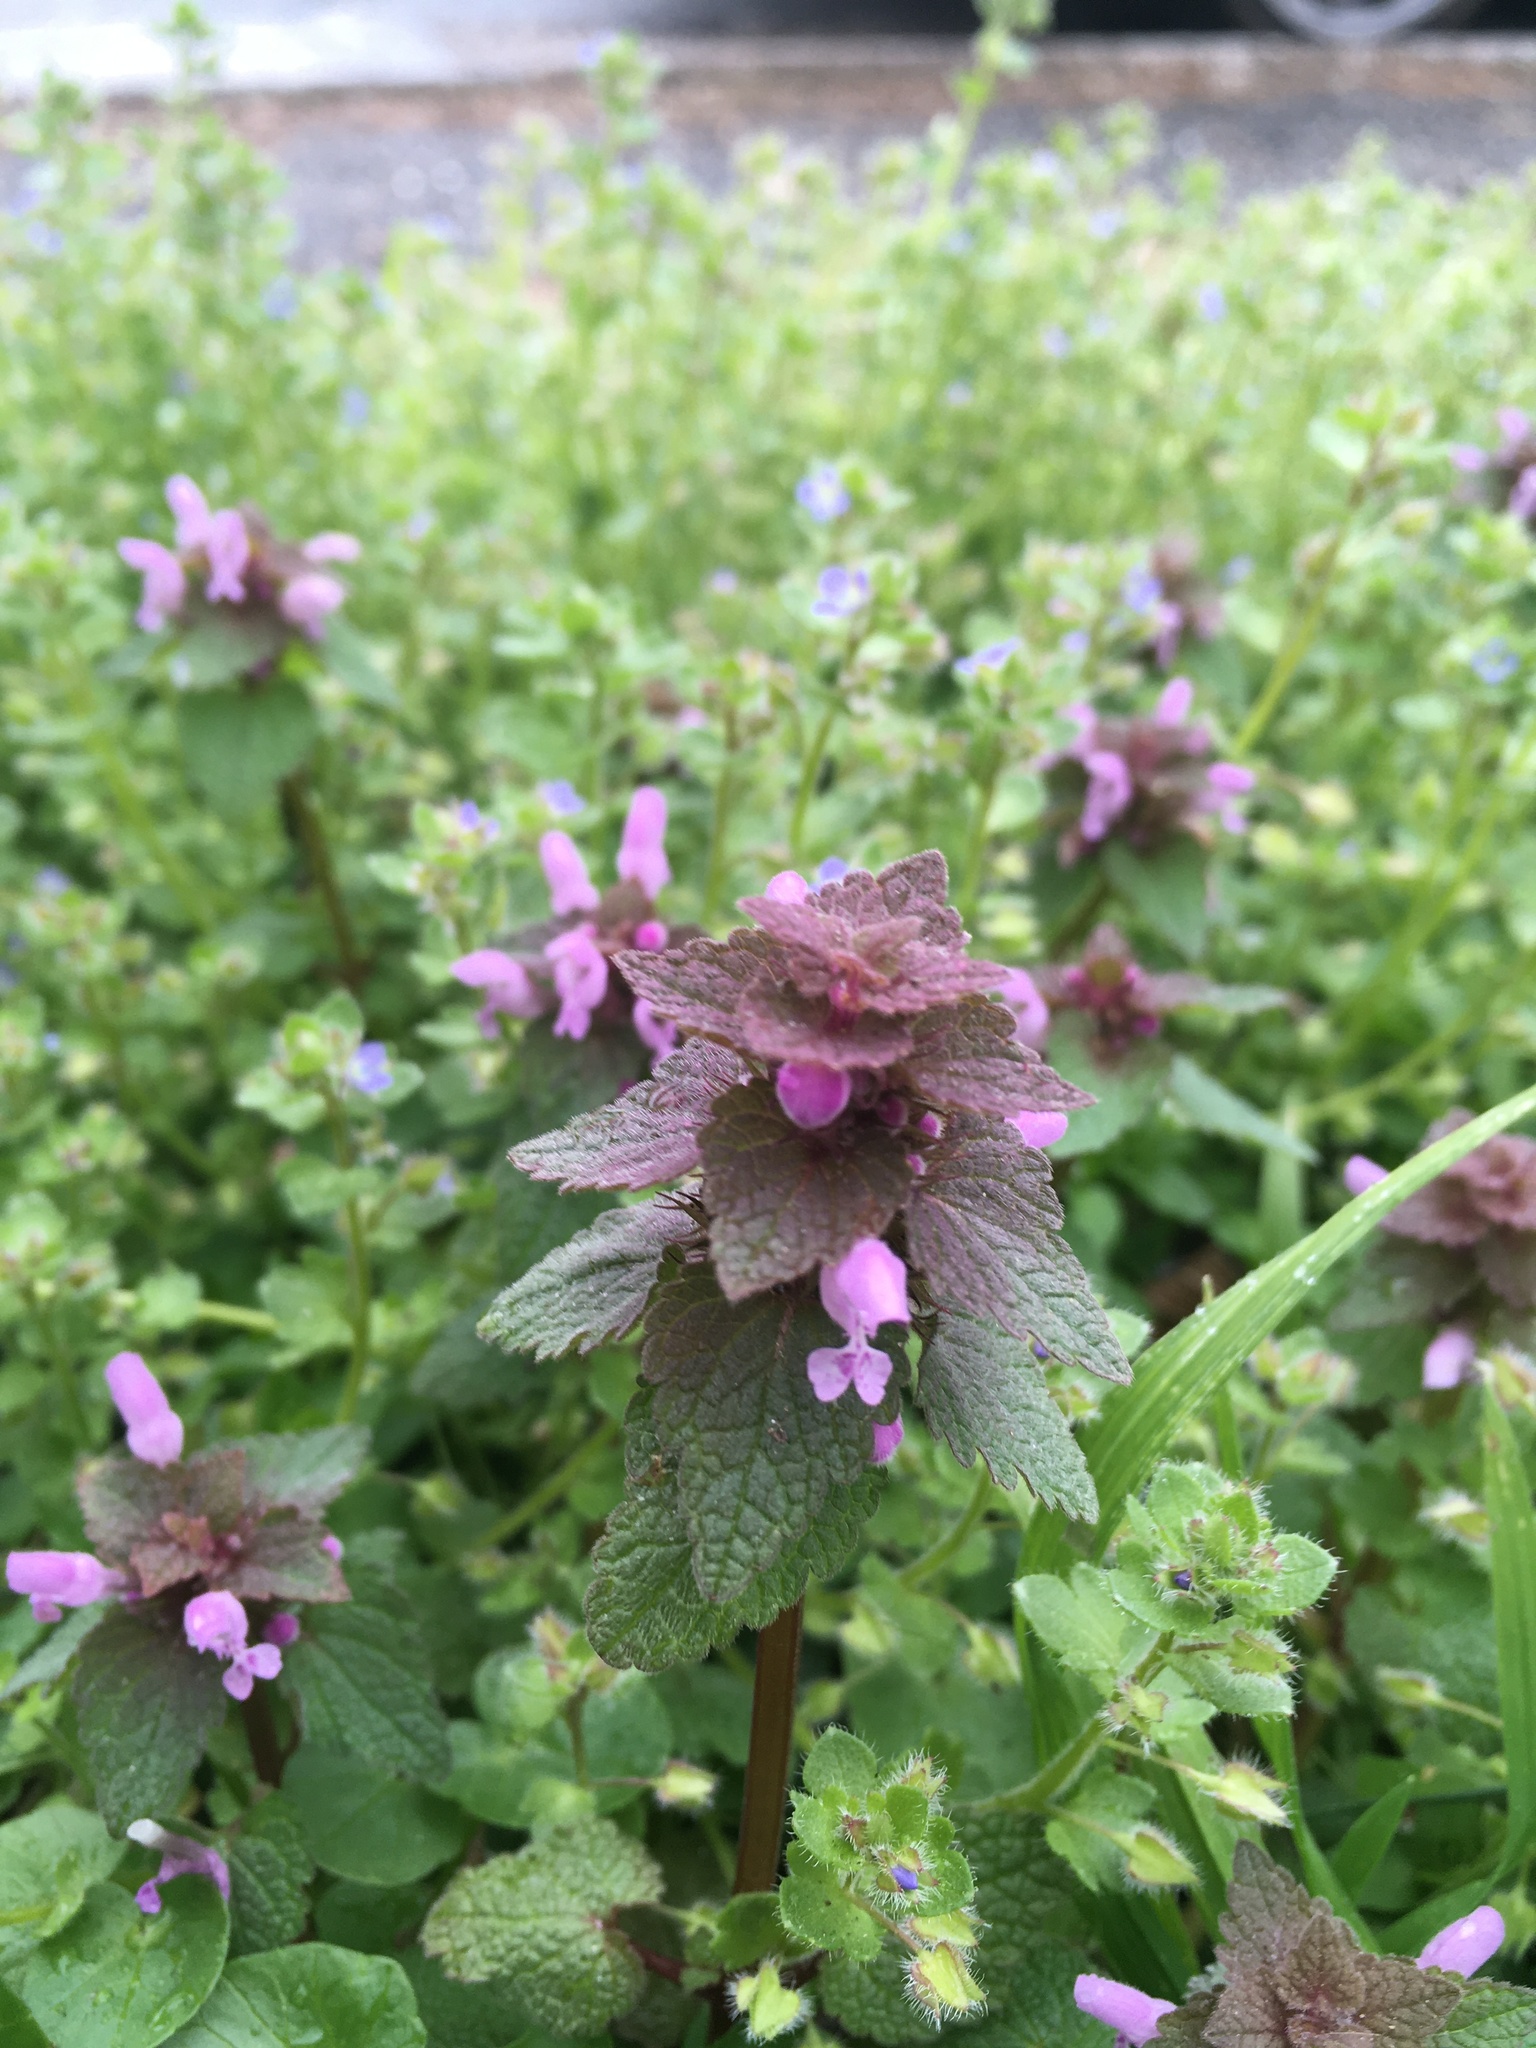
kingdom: Plantae
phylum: Tracheophyta
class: Magnoliopsida
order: Lamiales
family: Lamiaceae
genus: Lamium
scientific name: Lamium purpureum
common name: Red dead-nettle
